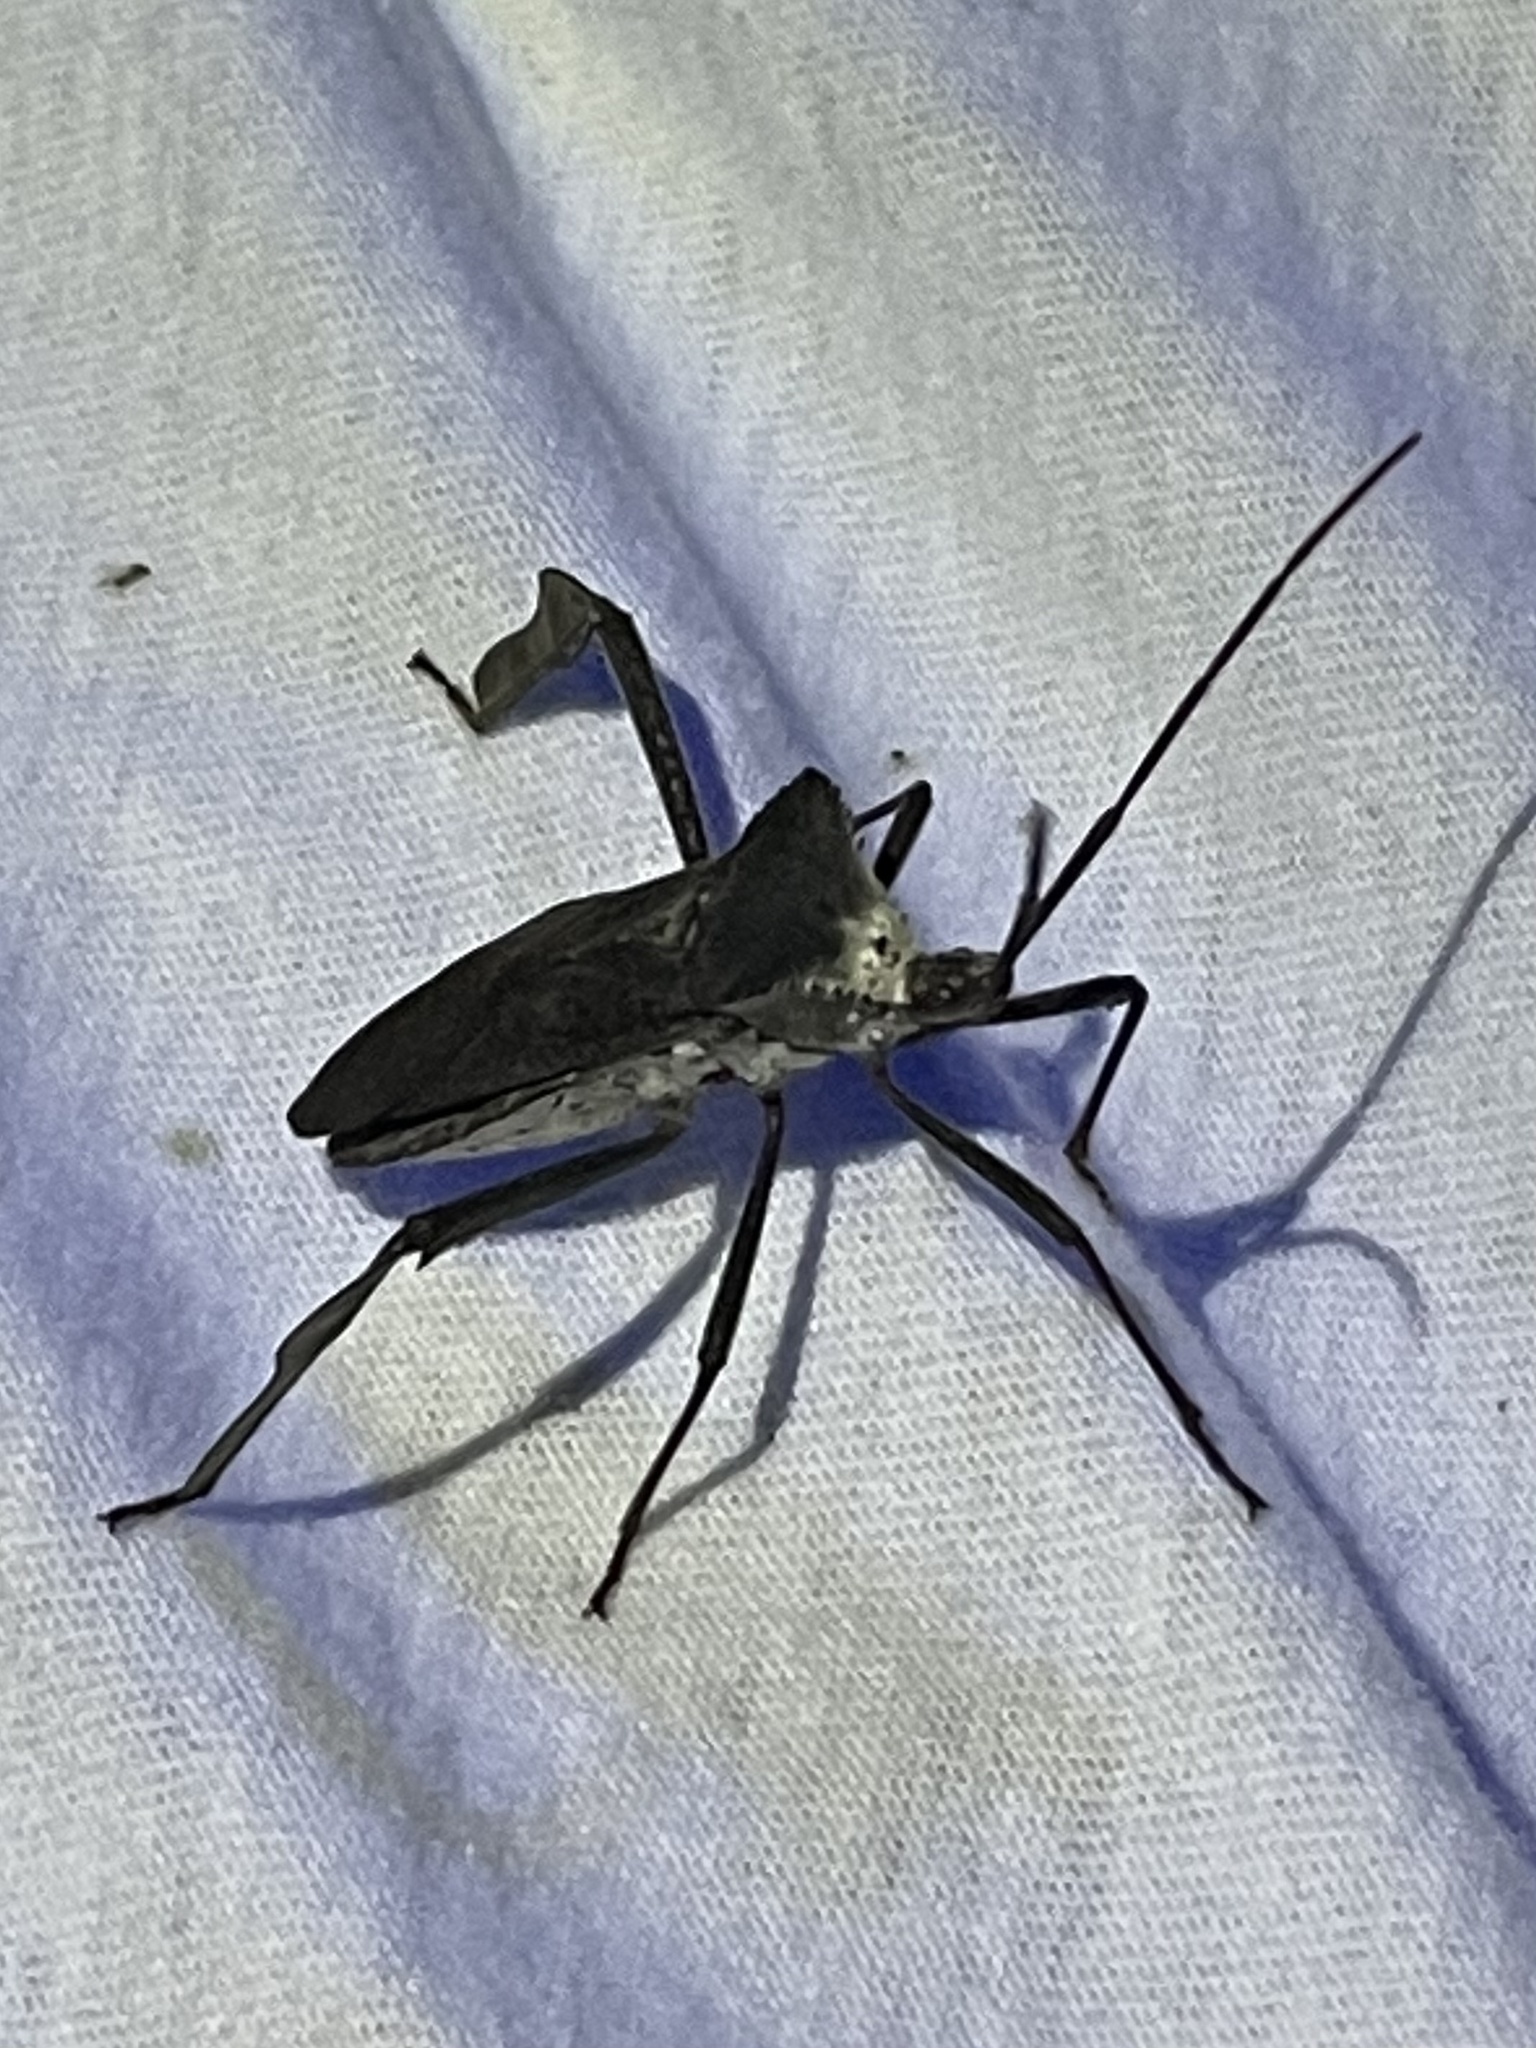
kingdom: Animalia
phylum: Arthropoda
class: Insecta
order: Hemiptera
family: Coreidae
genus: Acanthocephala
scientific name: Acanthocephala declivis
